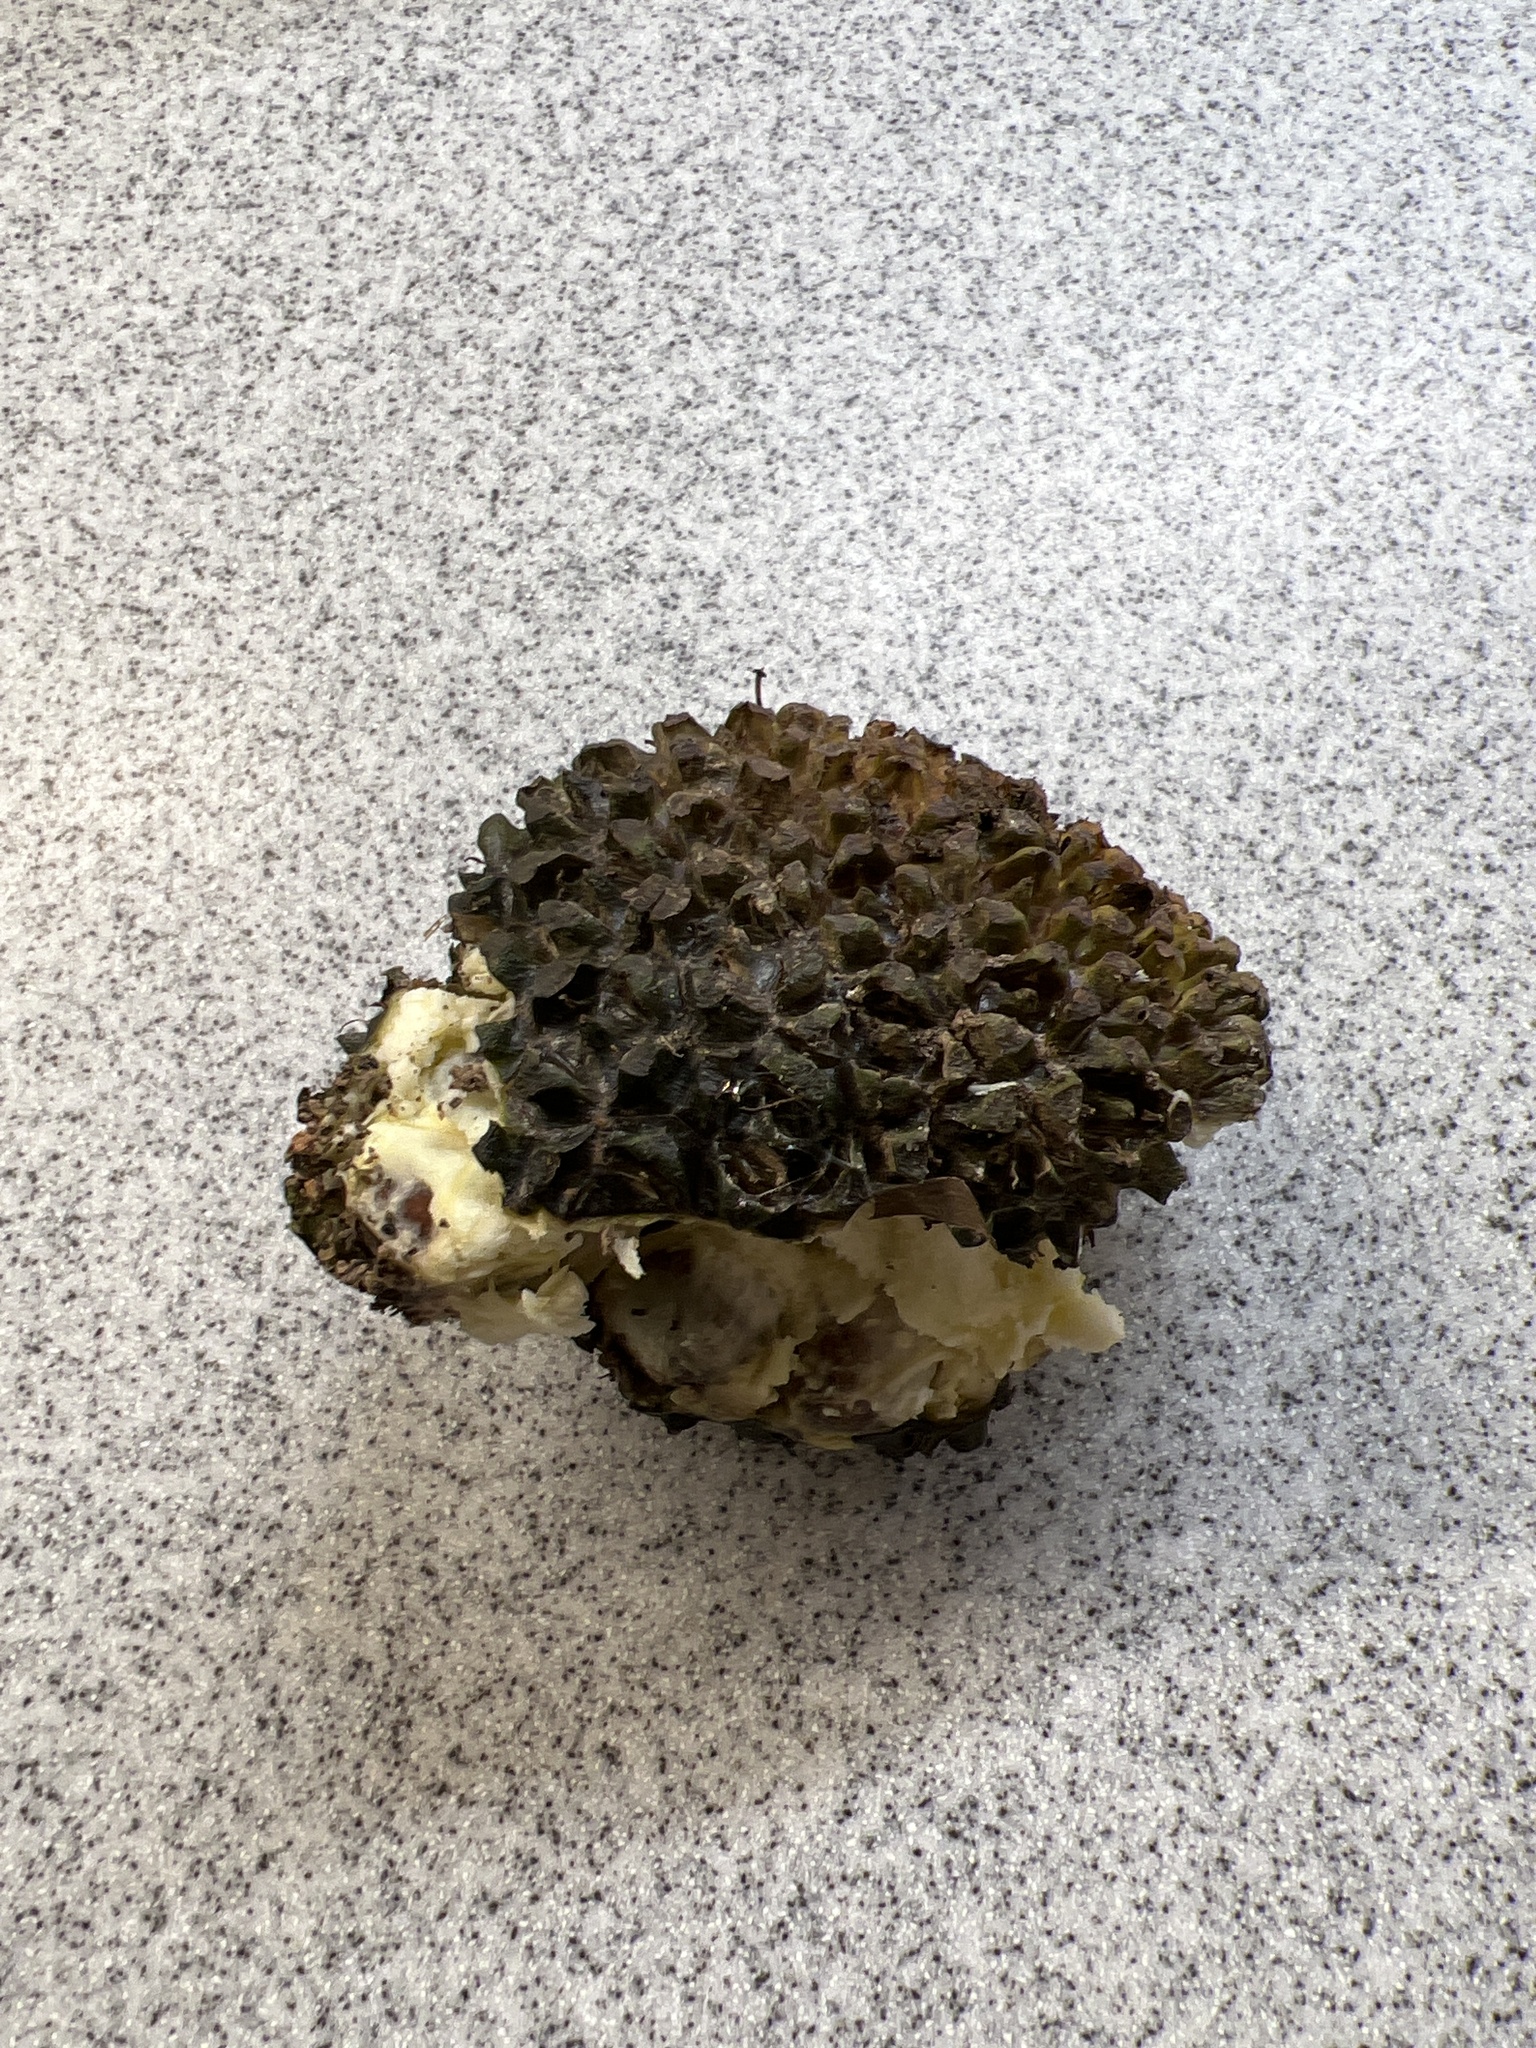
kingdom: Plantae
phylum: Tracheophyta
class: Liliopsida
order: Alismatales
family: Araceae
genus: Symplocarpus
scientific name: Symplocarpus foetidus
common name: Eastern skunk cabbage
